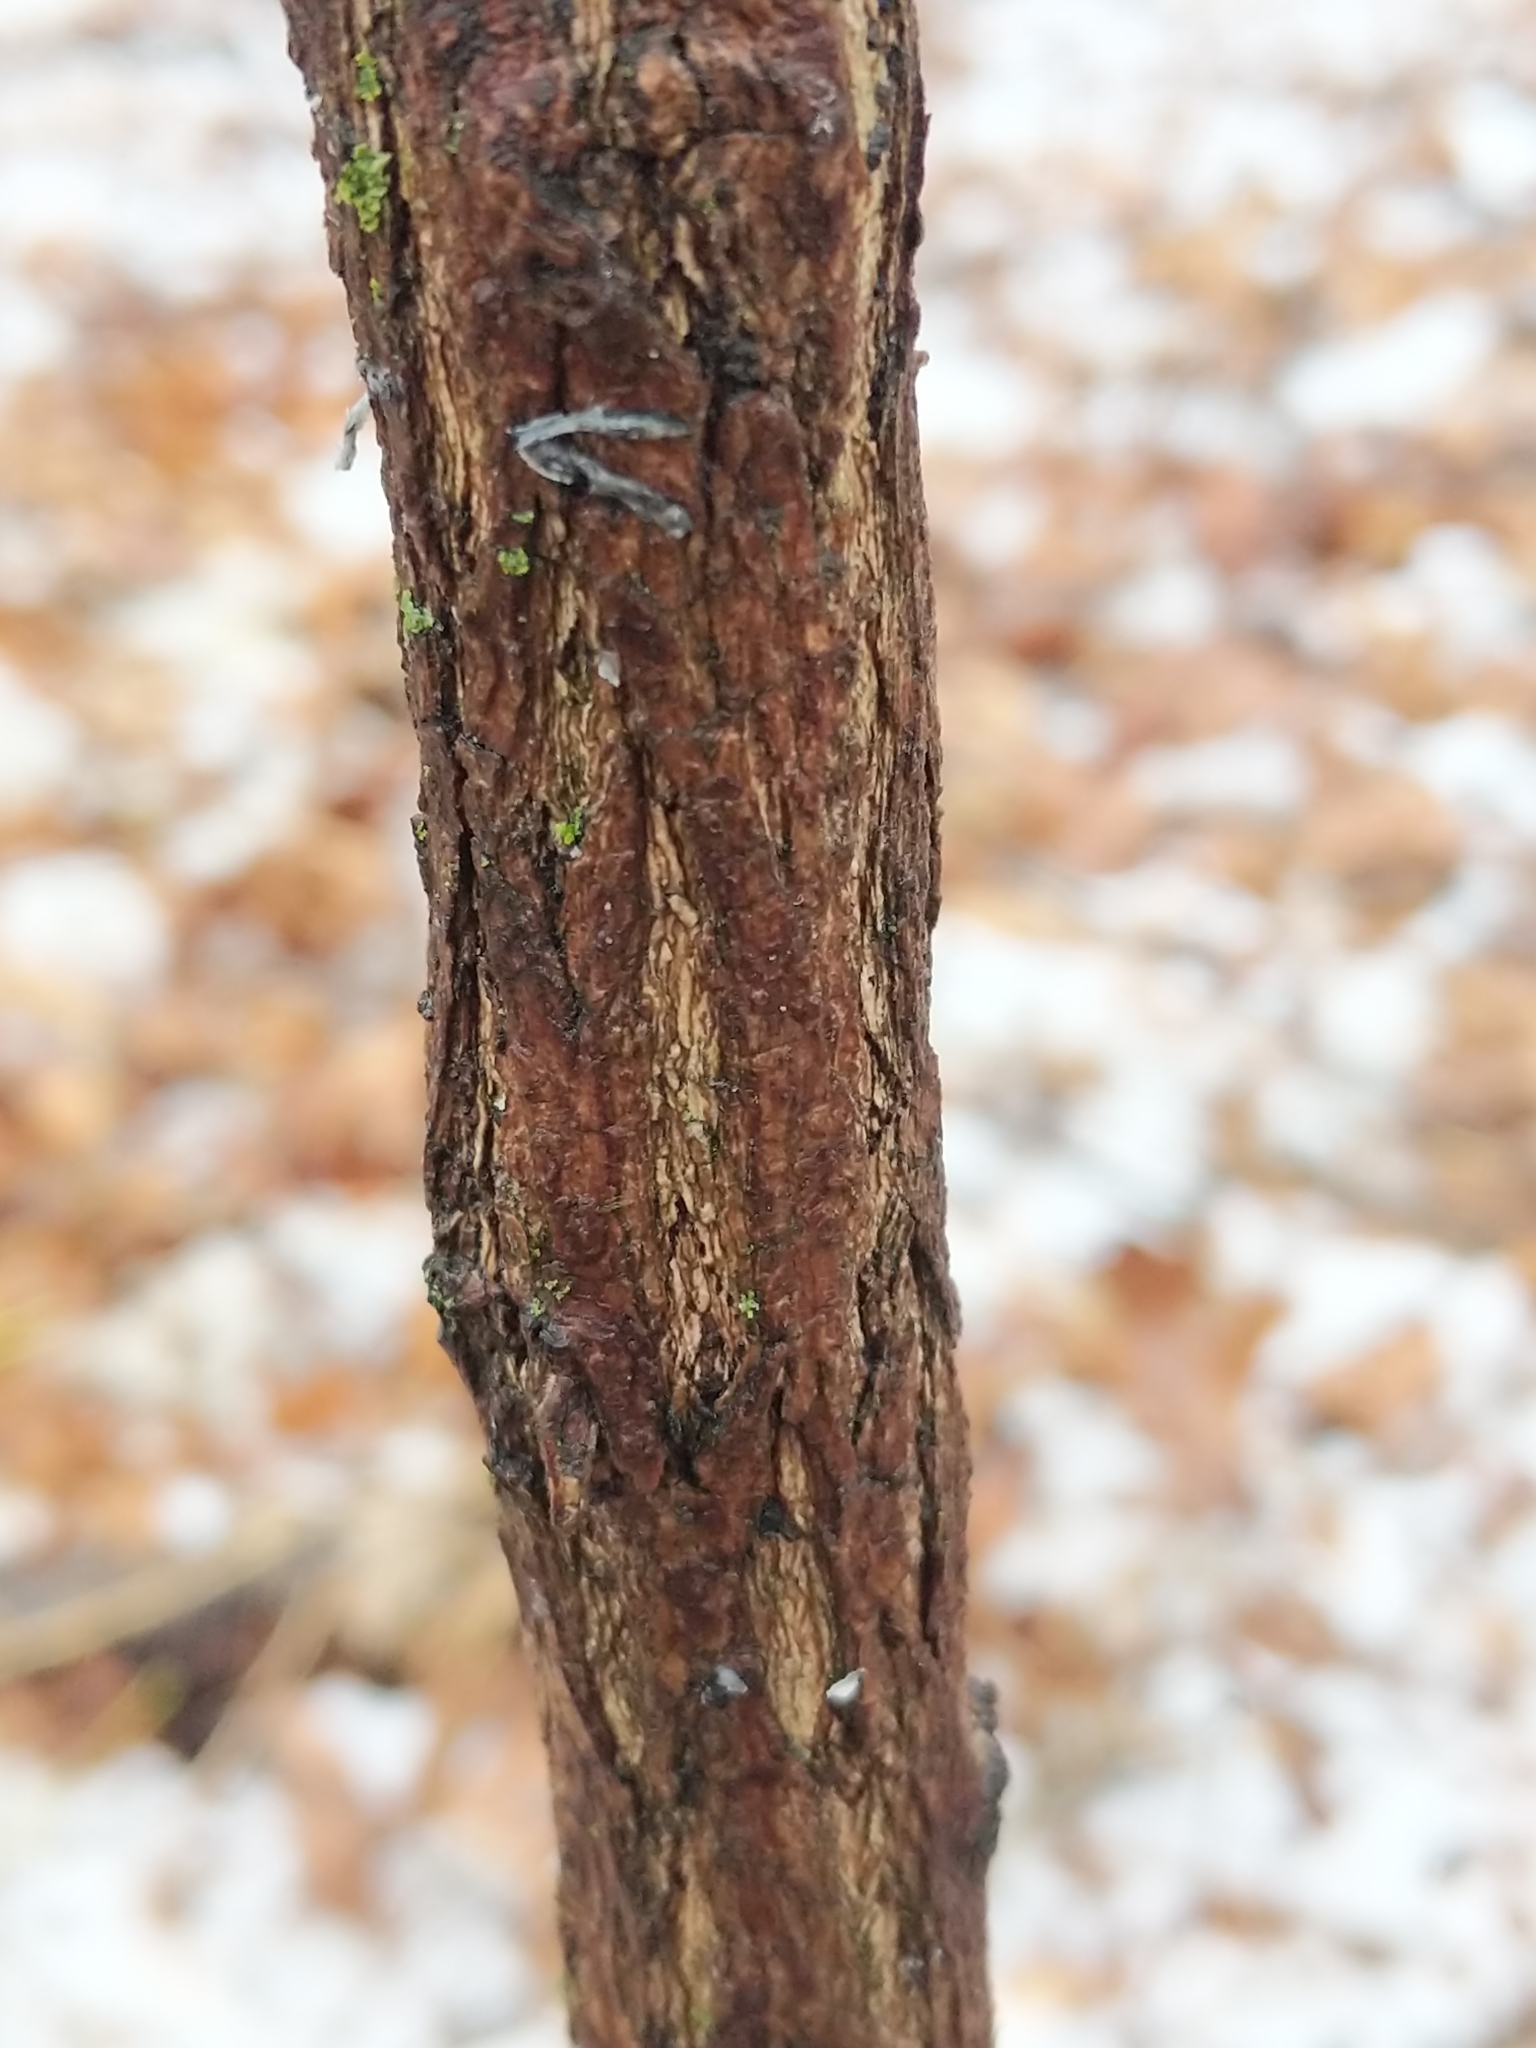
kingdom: Plantae
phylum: Tracheophyta
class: Magnoliopsida
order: Laurales
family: Lauraceae
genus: Sassafras
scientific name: Sassafras albidum
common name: Sassafras
